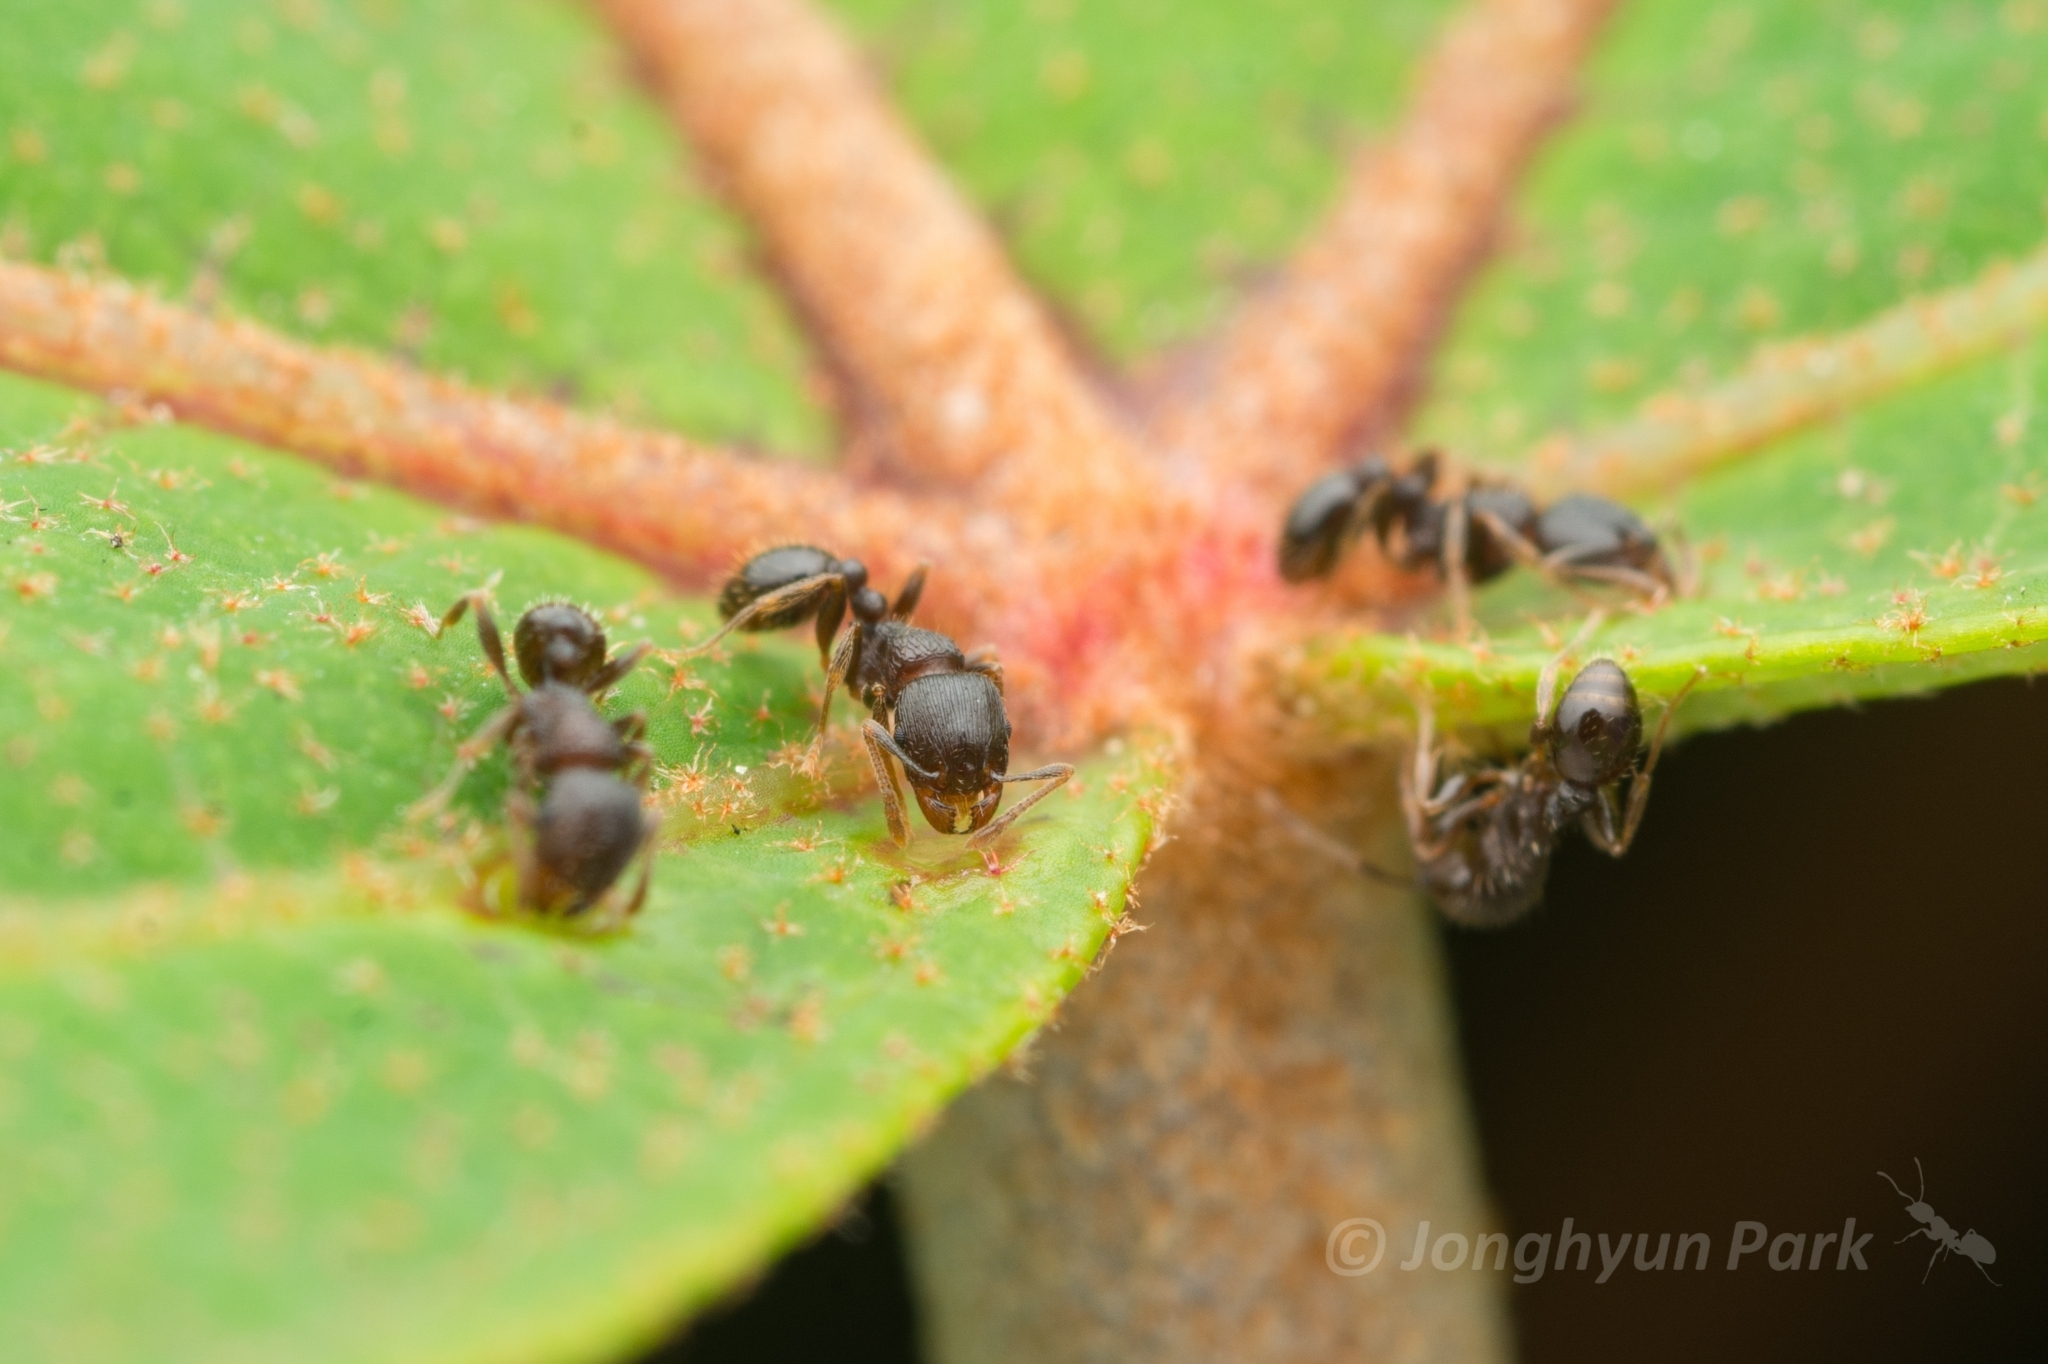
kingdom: Animalia
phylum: Arthropoda
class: Insecta
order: Hymenoptera
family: Formicidae
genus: Tetramorium
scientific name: Tetramorium tsushimae
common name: Ant
